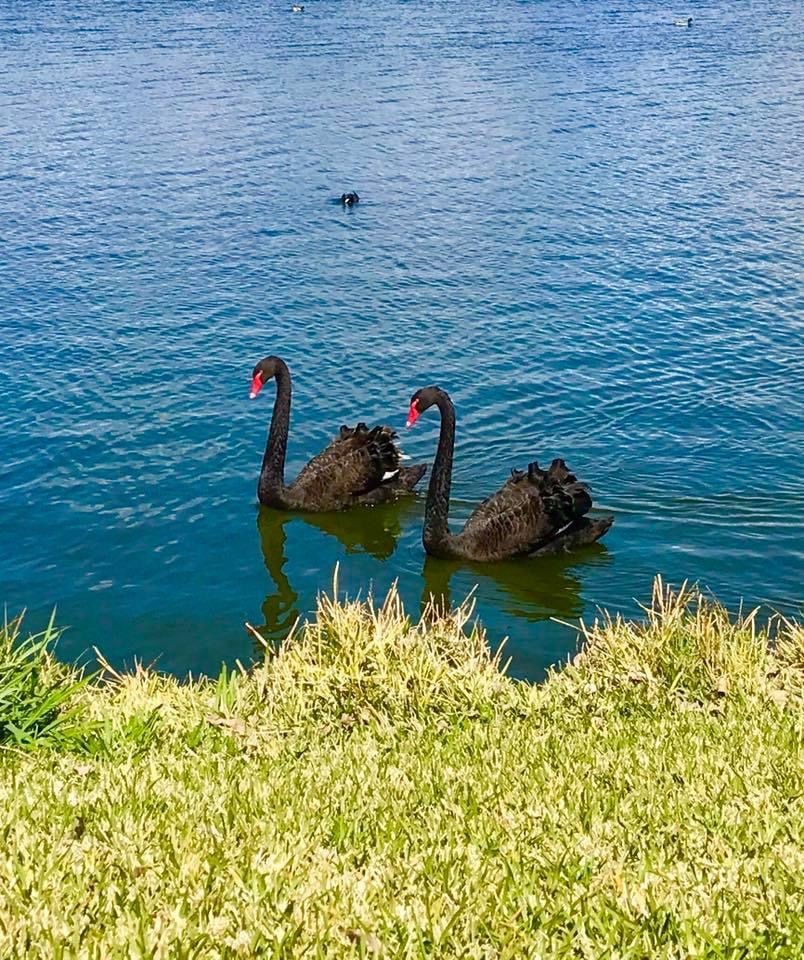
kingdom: Animalia
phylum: Chordata
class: Aves
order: Anseriformes
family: Anatidae
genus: Cygnus
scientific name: Cygnus atratus
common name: Black swan
